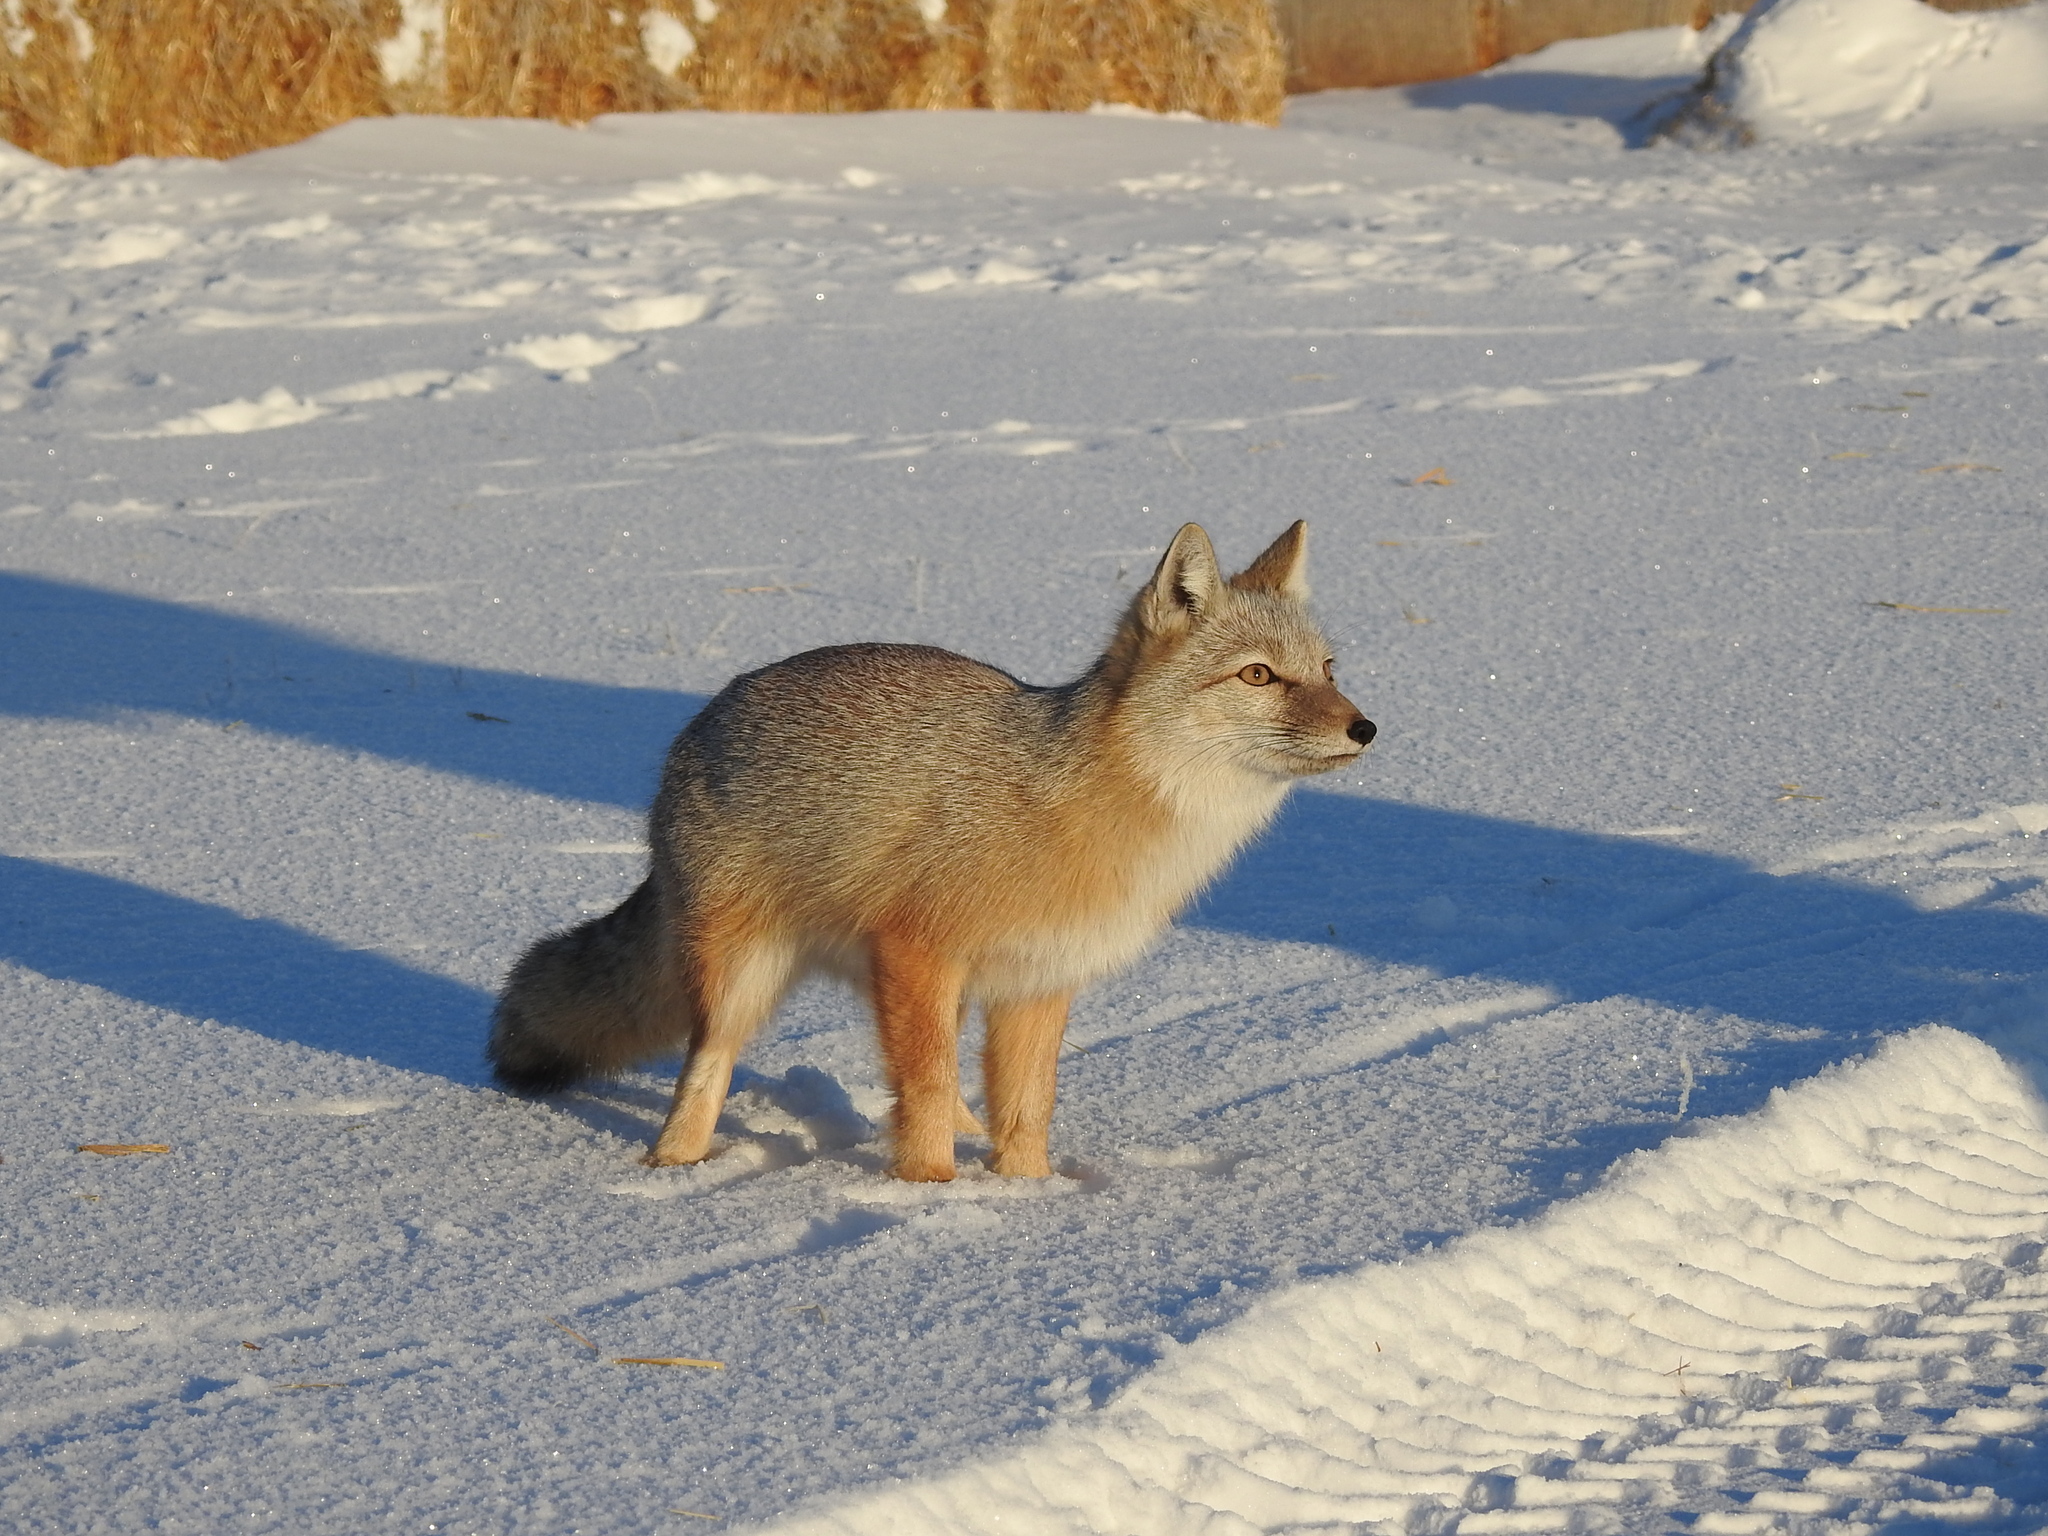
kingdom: Animalia
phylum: Chordata
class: Mammalia
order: Carnivora
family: Canidae
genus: Vulpes
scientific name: Vulpes corsac
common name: Corsac fox
